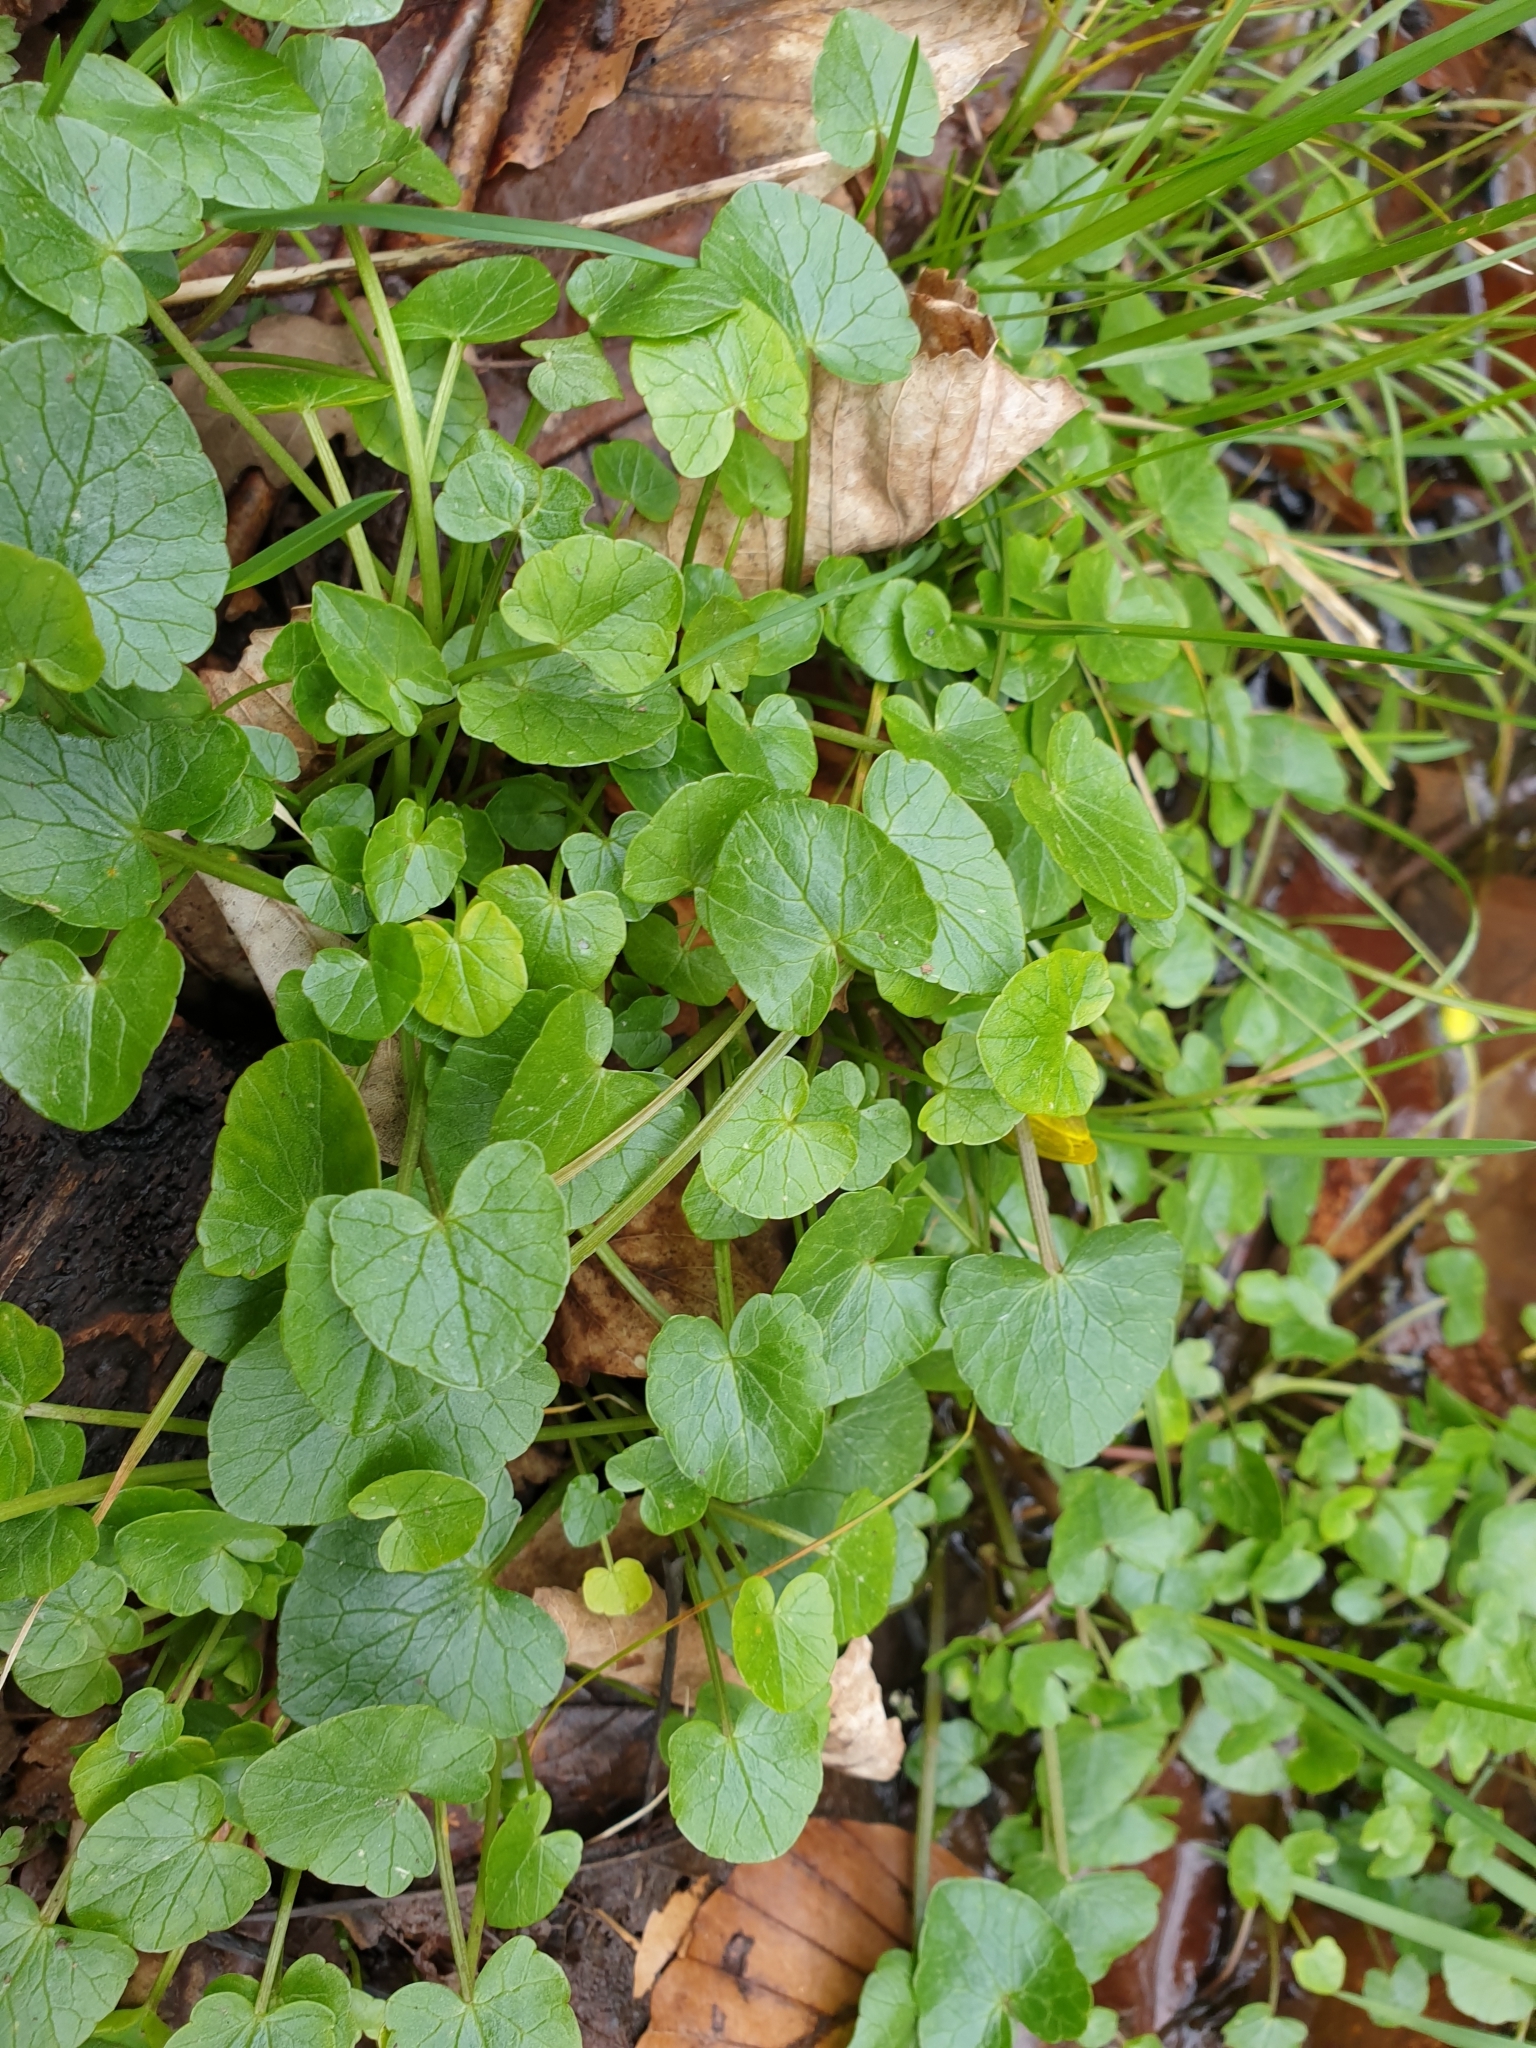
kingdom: Plantae
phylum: Tracheophyta
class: Magnoliopsida
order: Ranunculales
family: Ranunculaceae
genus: Ficaria
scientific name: Ficaria verna
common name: Lesser celandine
